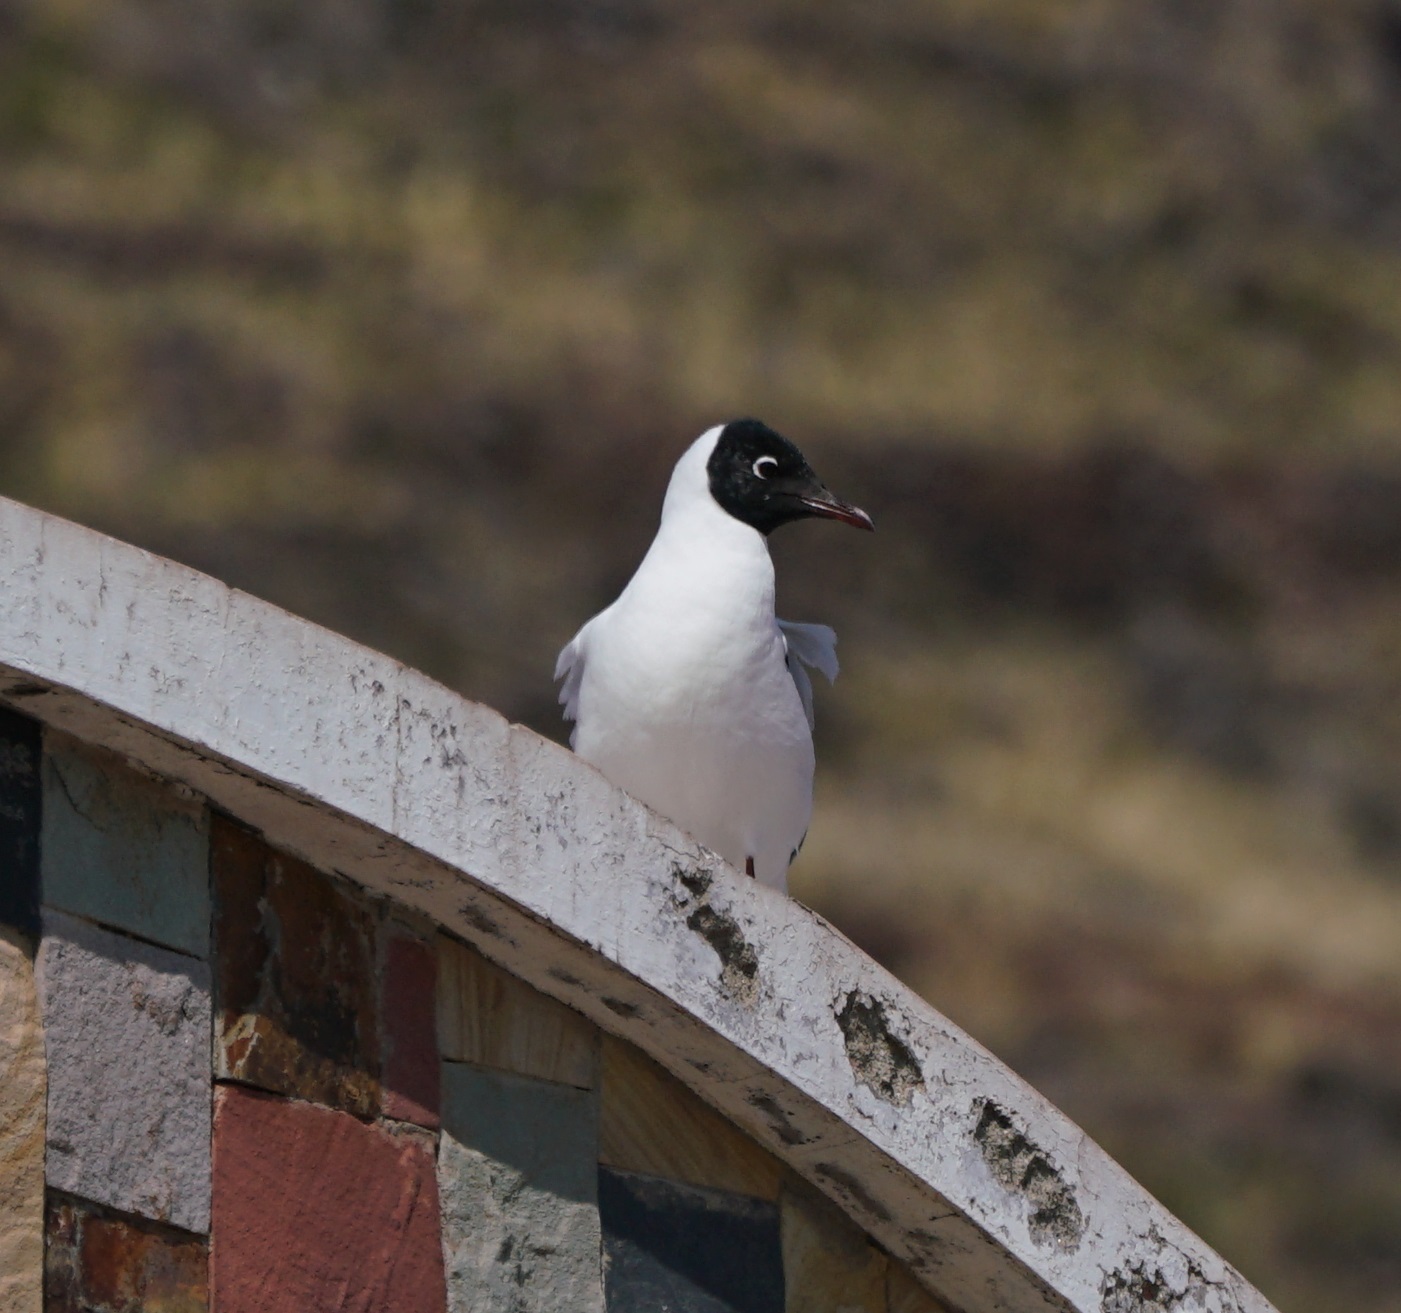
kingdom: Animalia
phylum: Chordata
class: Aves
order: Charadriiformes
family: Laridae
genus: Chroicocephalus
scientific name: Chroicocephalus serranus
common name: Andean gull
